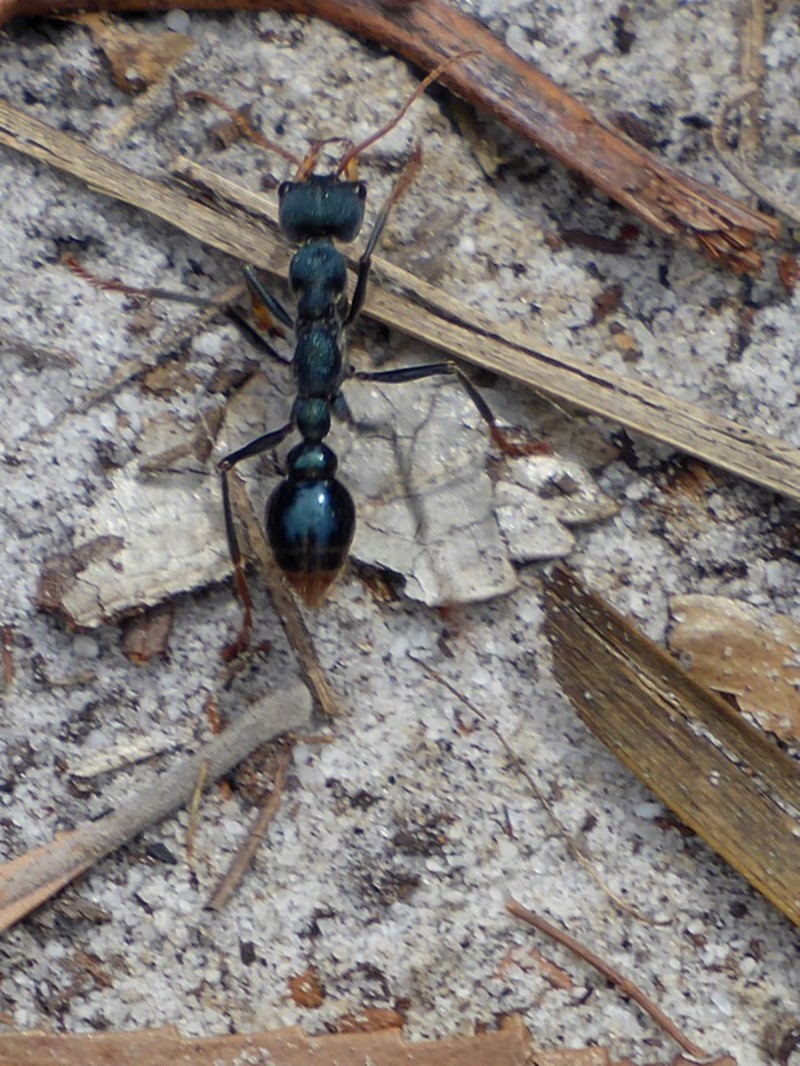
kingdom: Animalia
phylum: Arthropoda
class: Insecta
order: Hymenoptera
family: Formicidae
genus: Myrmecia
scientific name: Myrmecia tarsata
